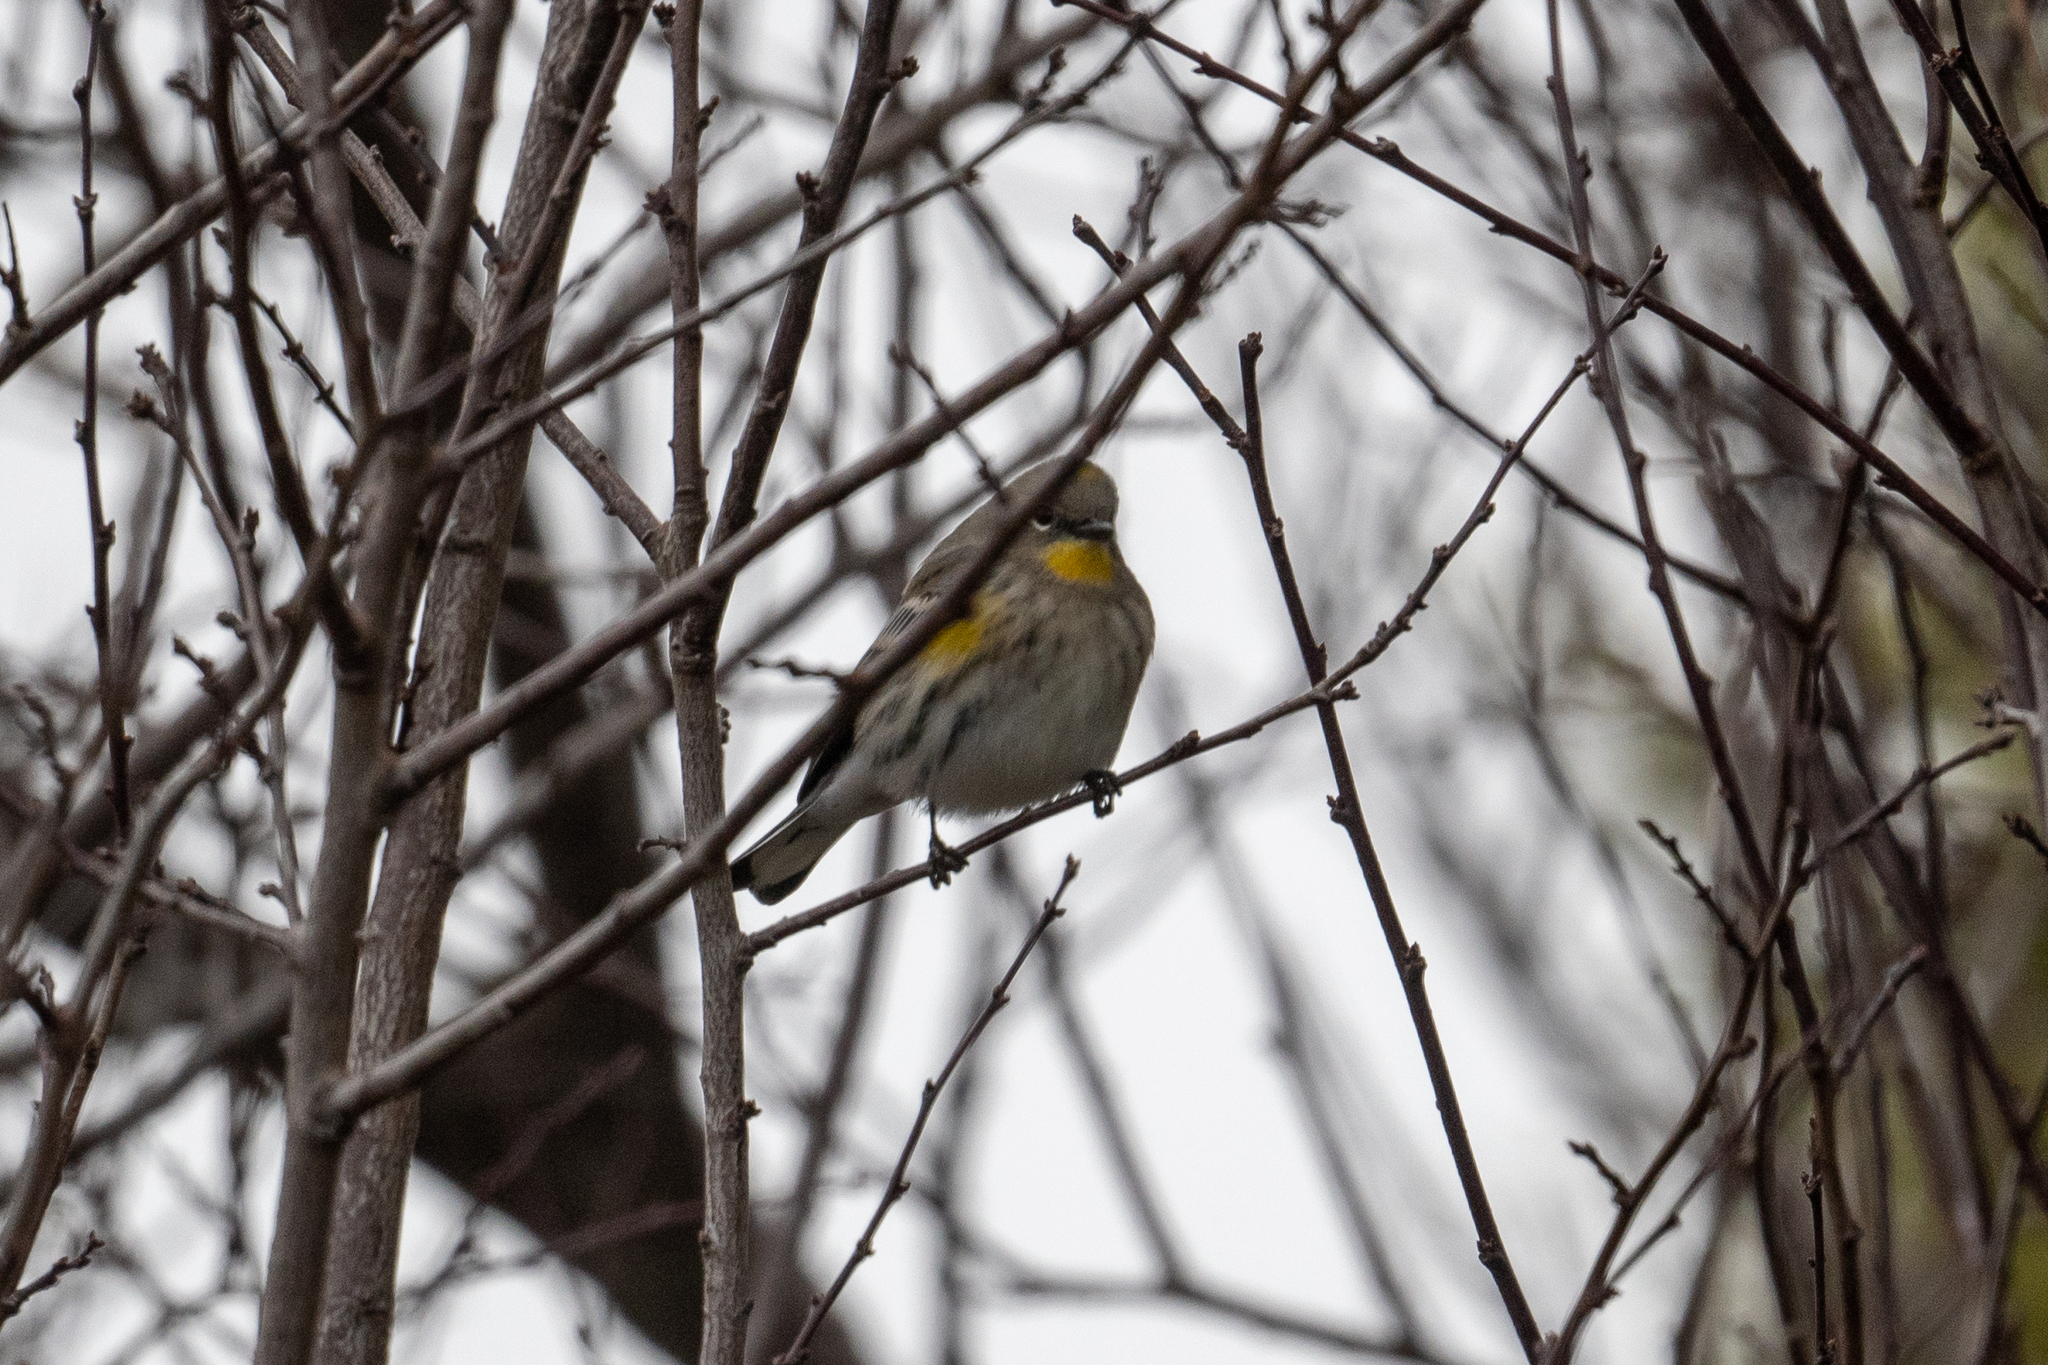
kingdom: Animalia
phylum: Chordata
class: Aves
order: Passeriformes
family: Parulidae
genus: Setophaga
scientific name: Setophaga coronata
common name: Myrtle warbler
